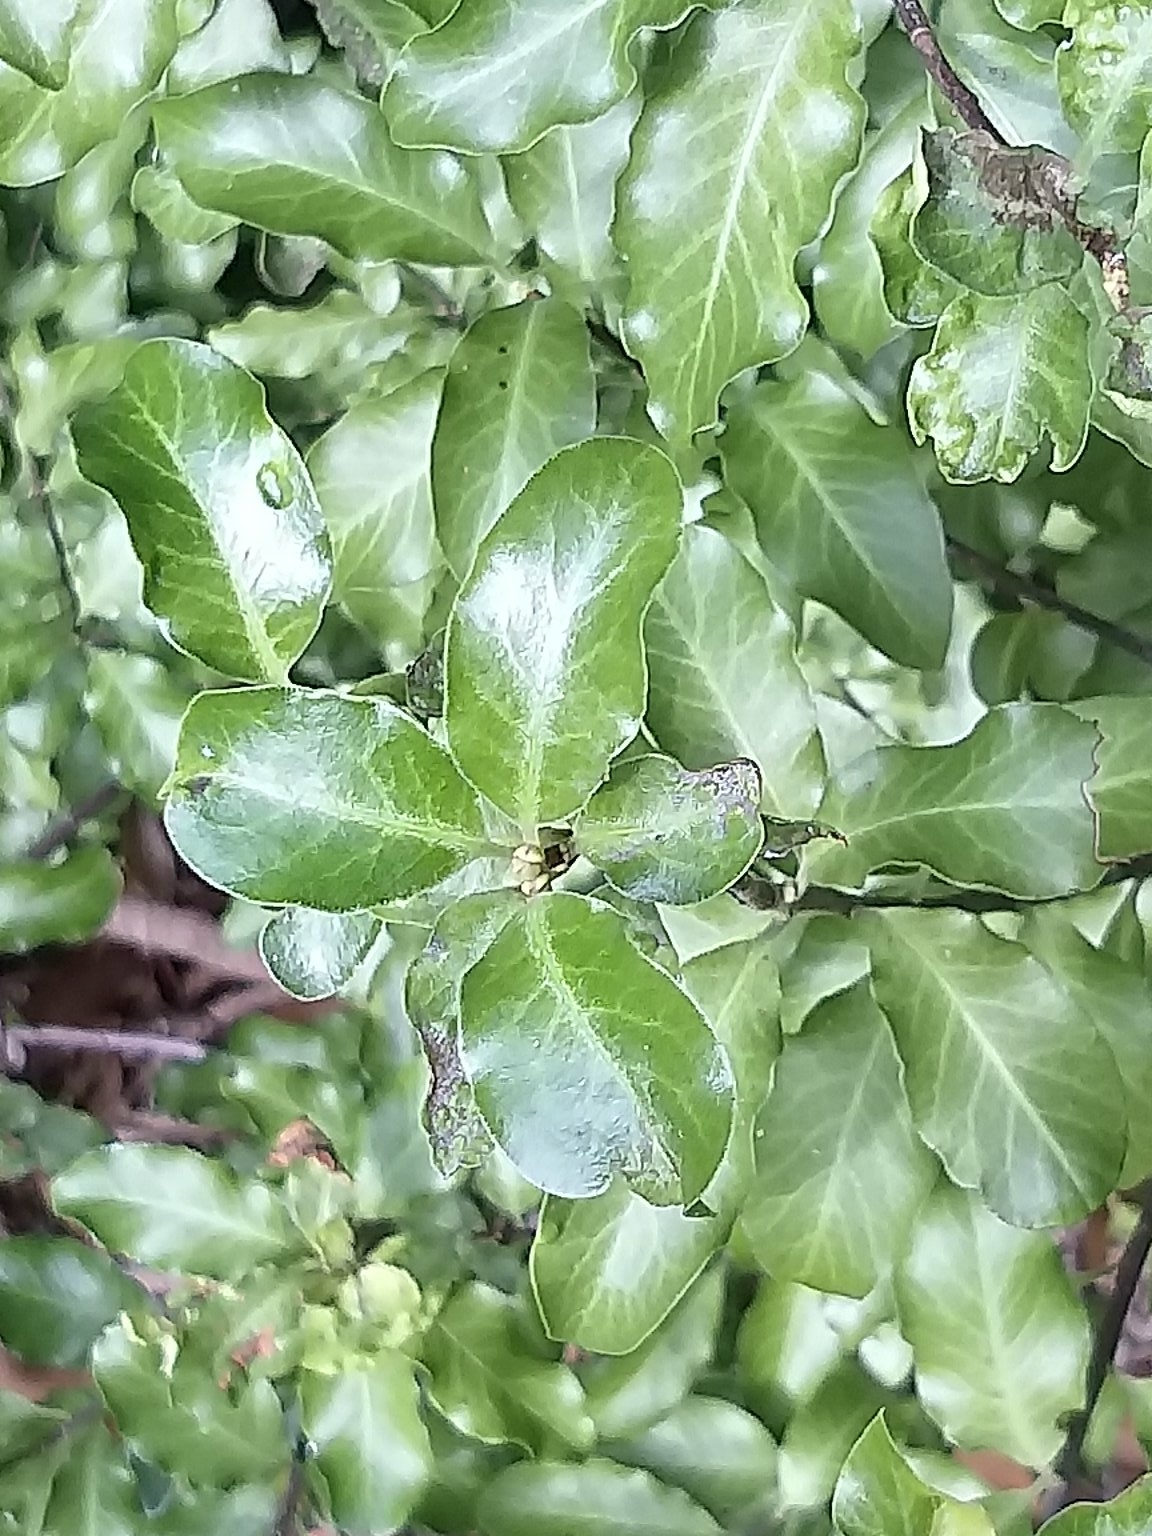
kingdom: Plantae
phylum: Tracheophyta
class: Magnoliopsida
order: Apiales
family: Pittosporaceae
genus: Pittosporum
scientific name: Pittosporum tenuifolium
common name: Kohuhu
